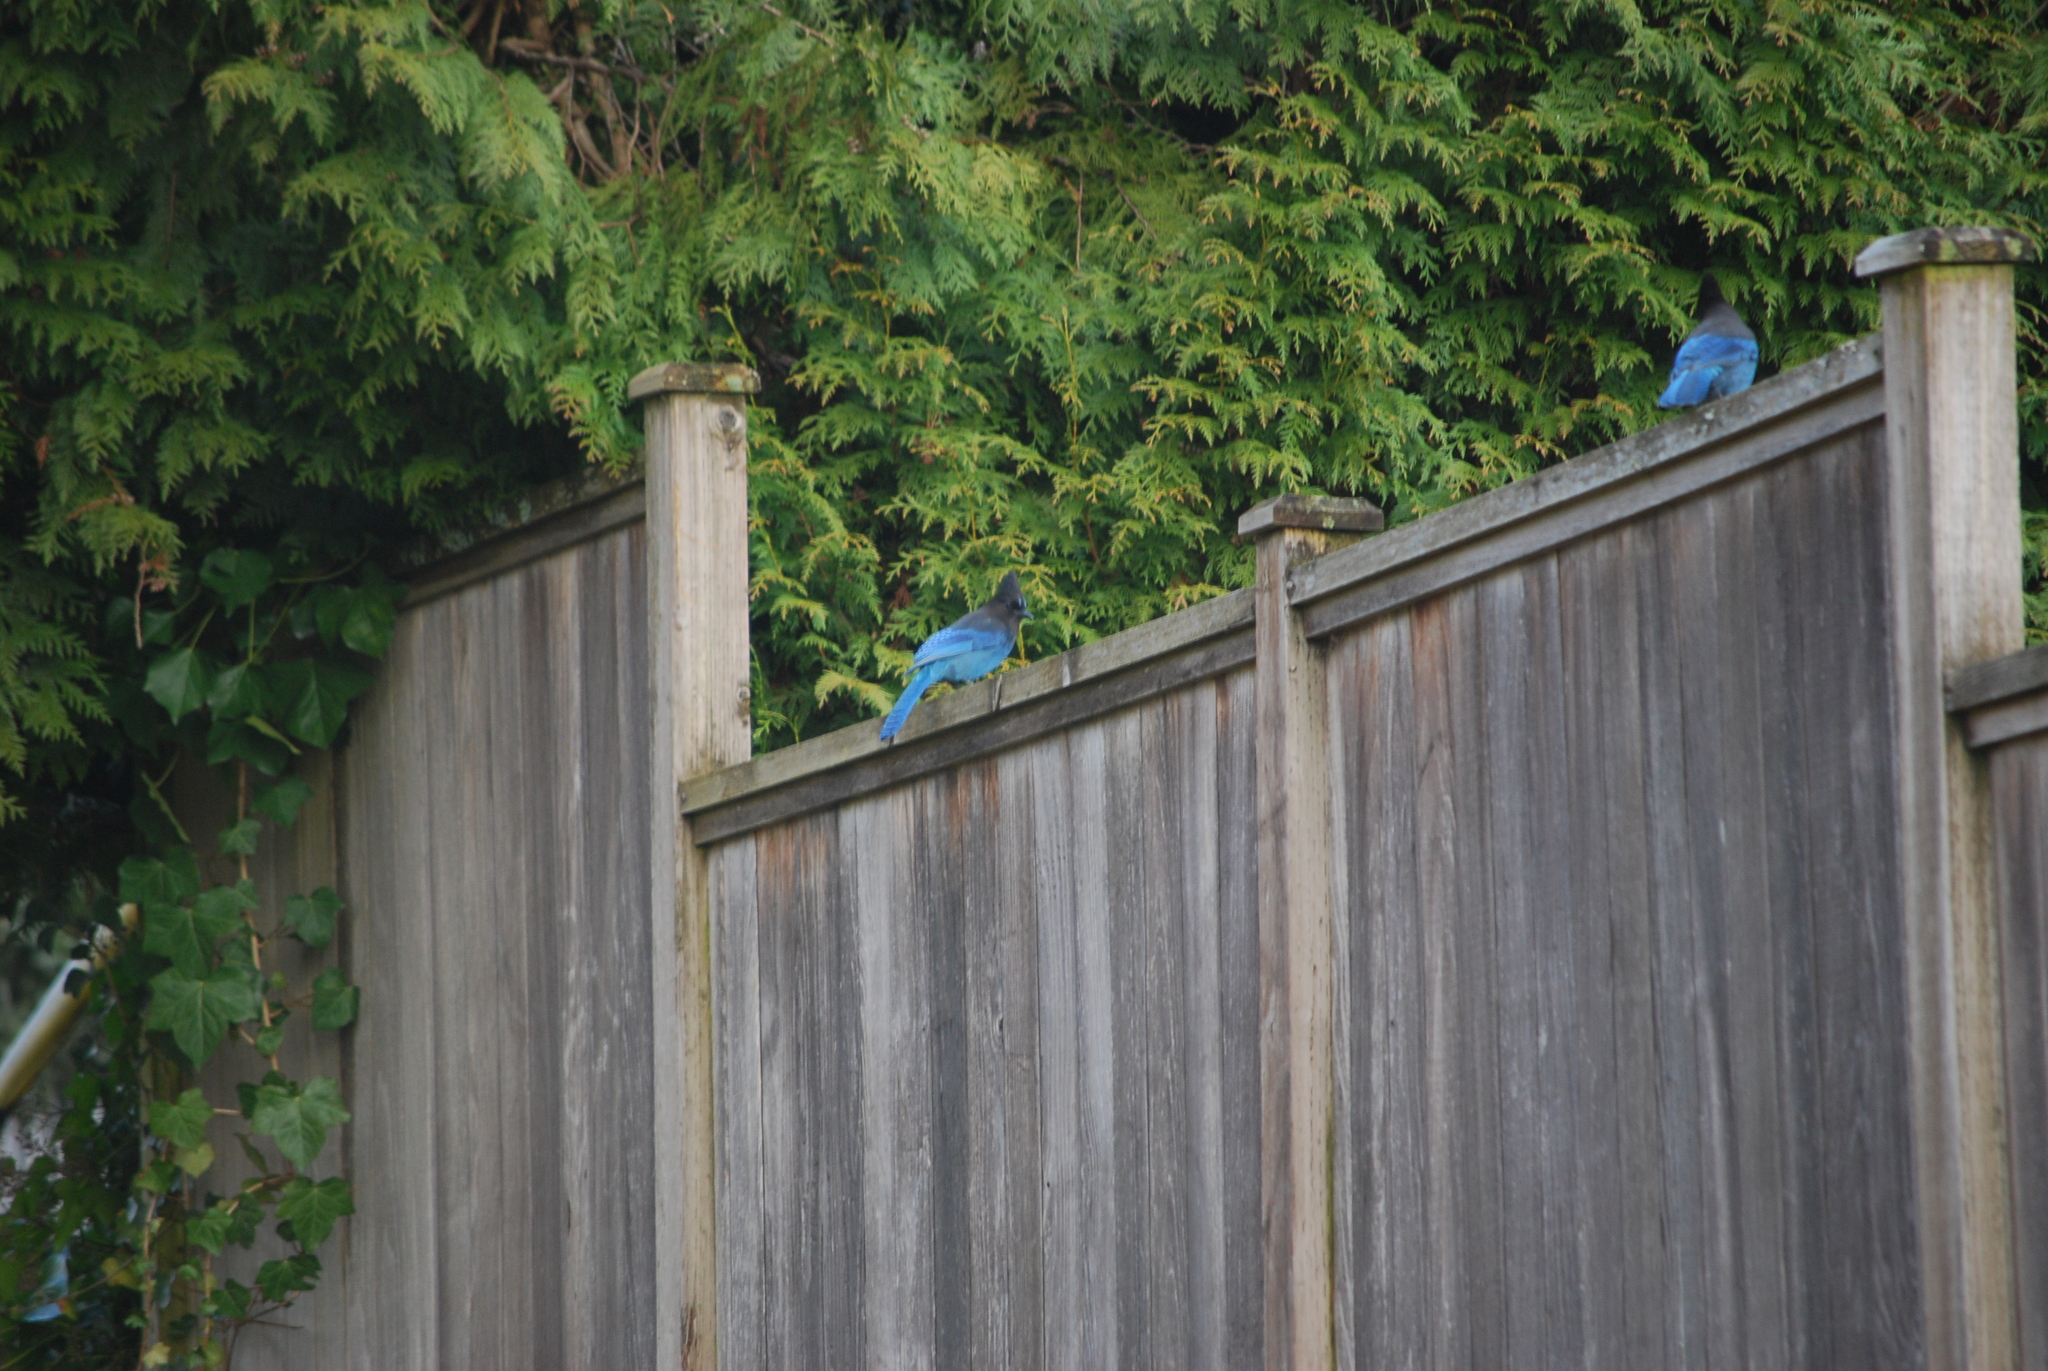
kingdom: Animalia
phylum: Chordata
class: Aves
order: Passeriformes
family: Corvidae
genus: Cyanocitta
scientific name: Cyanocitta stelleri
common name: Steller's jay
